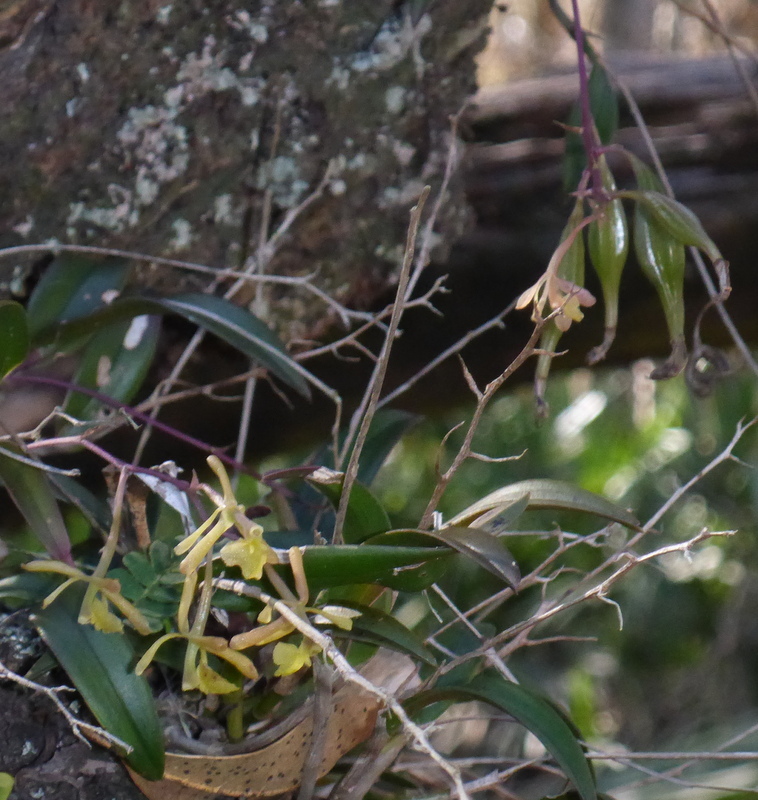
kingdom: Plantae
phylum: Tracheophyta
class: Liliopsida
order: Asparagales
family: Orchidaceae
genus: Epidendrum
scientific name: Epidendrum conopseum
